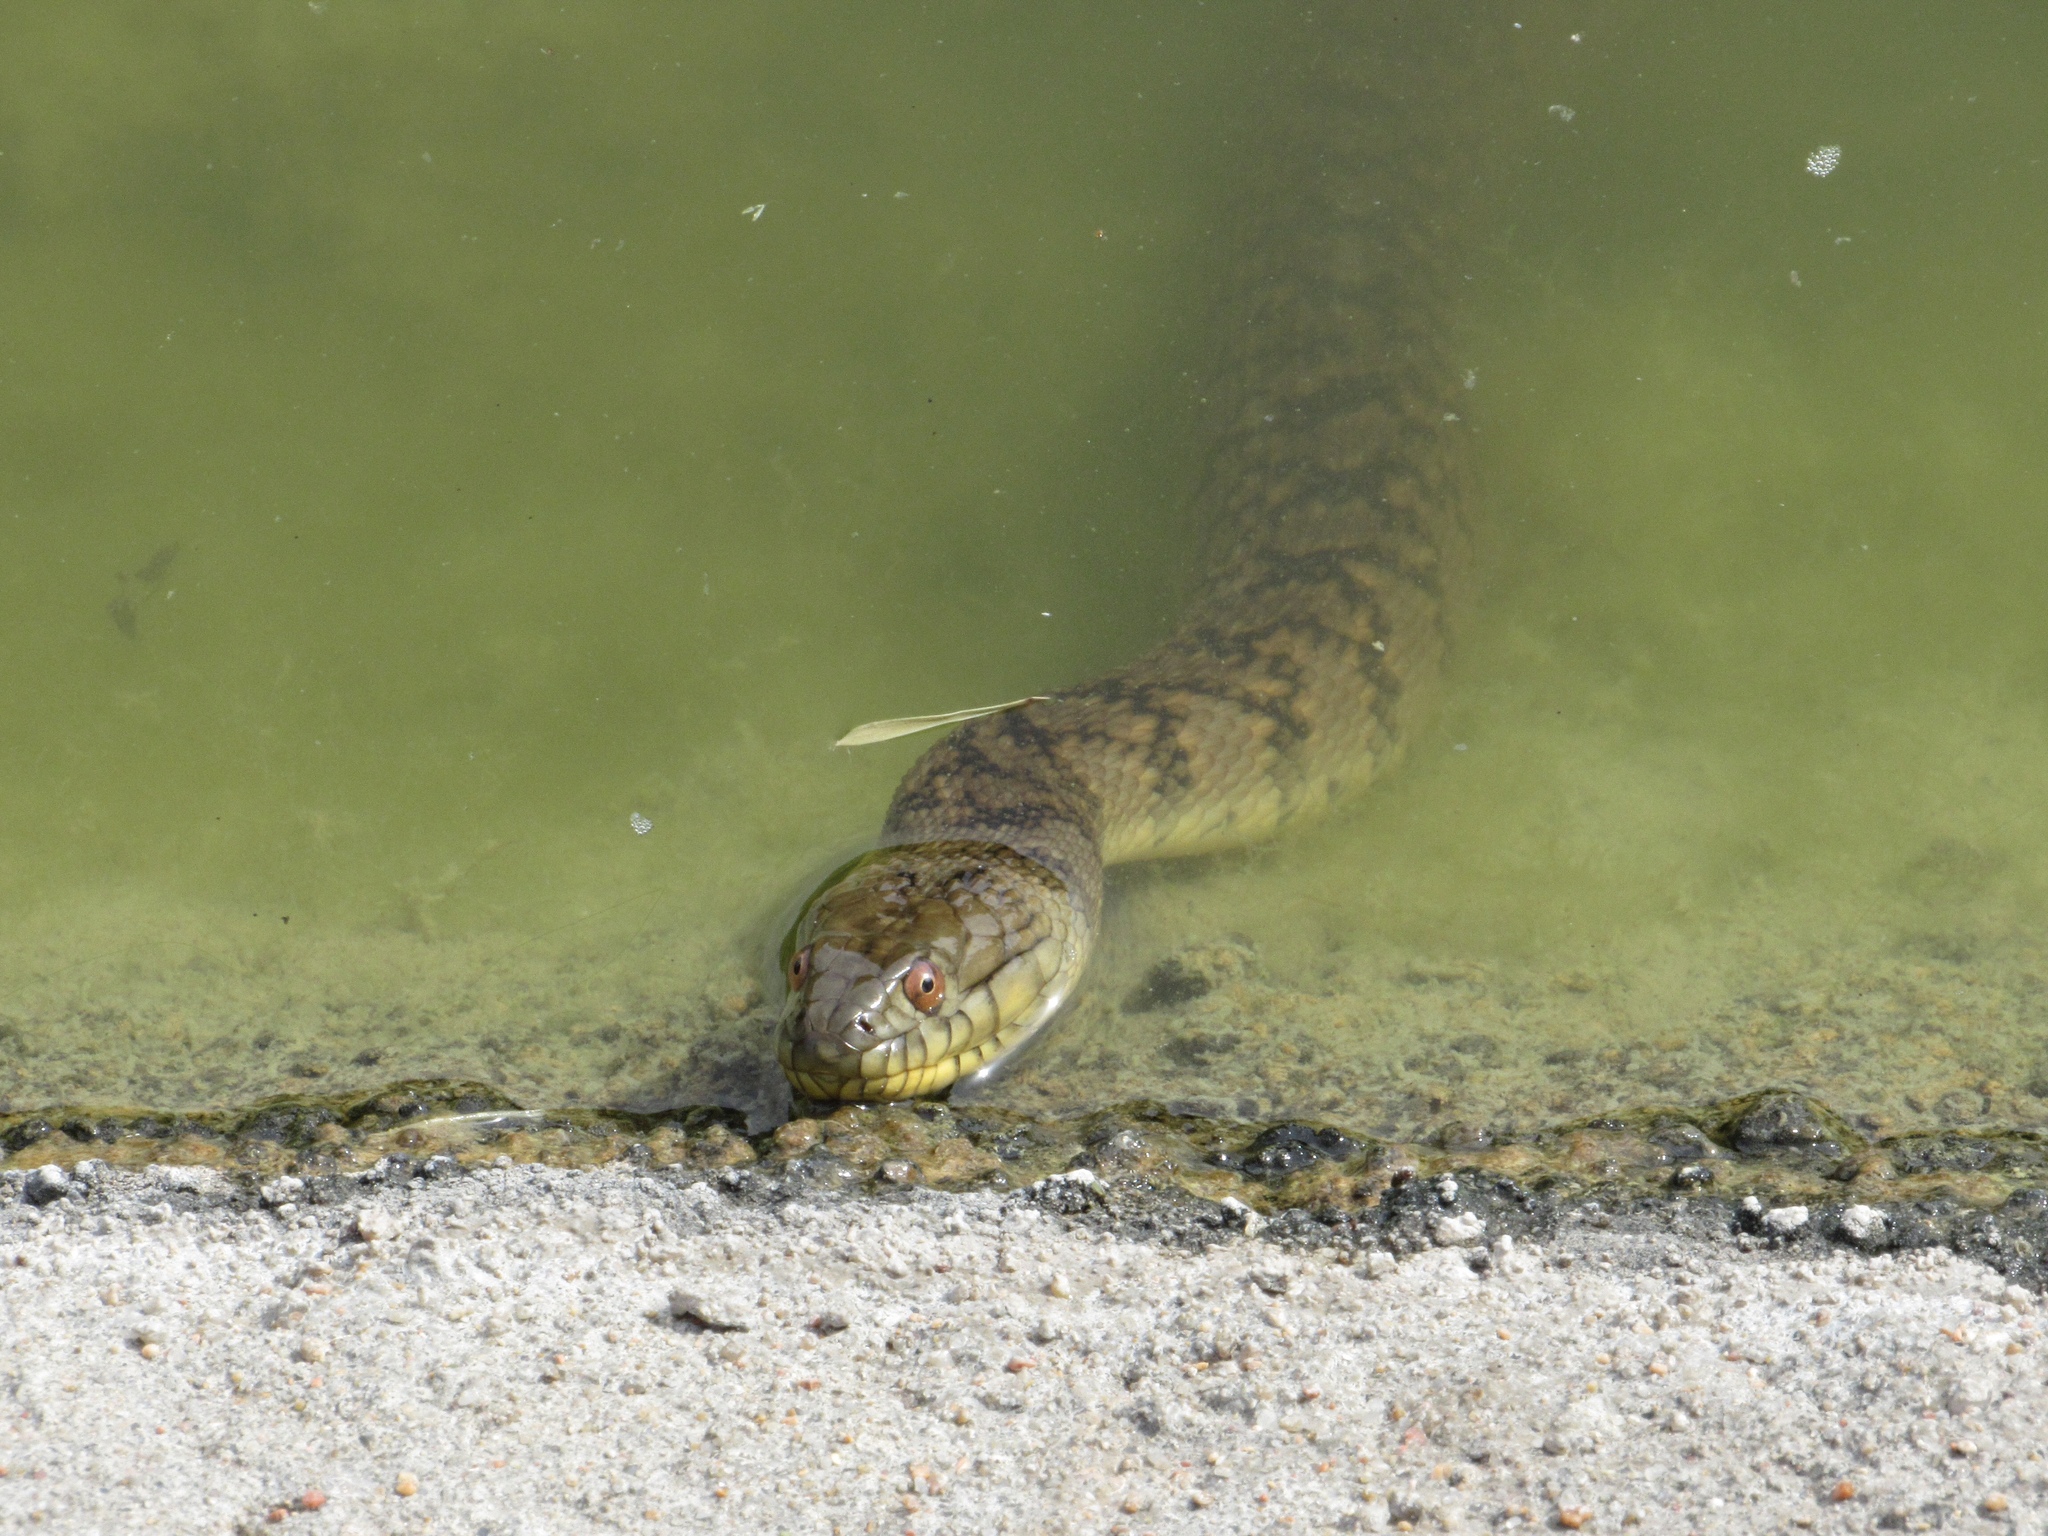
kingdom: Animalia
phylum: Chordata
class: Squamata
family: Colubridae
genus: Nerodia
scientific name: Nerodia rhombifer
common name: Diamondback water snake
